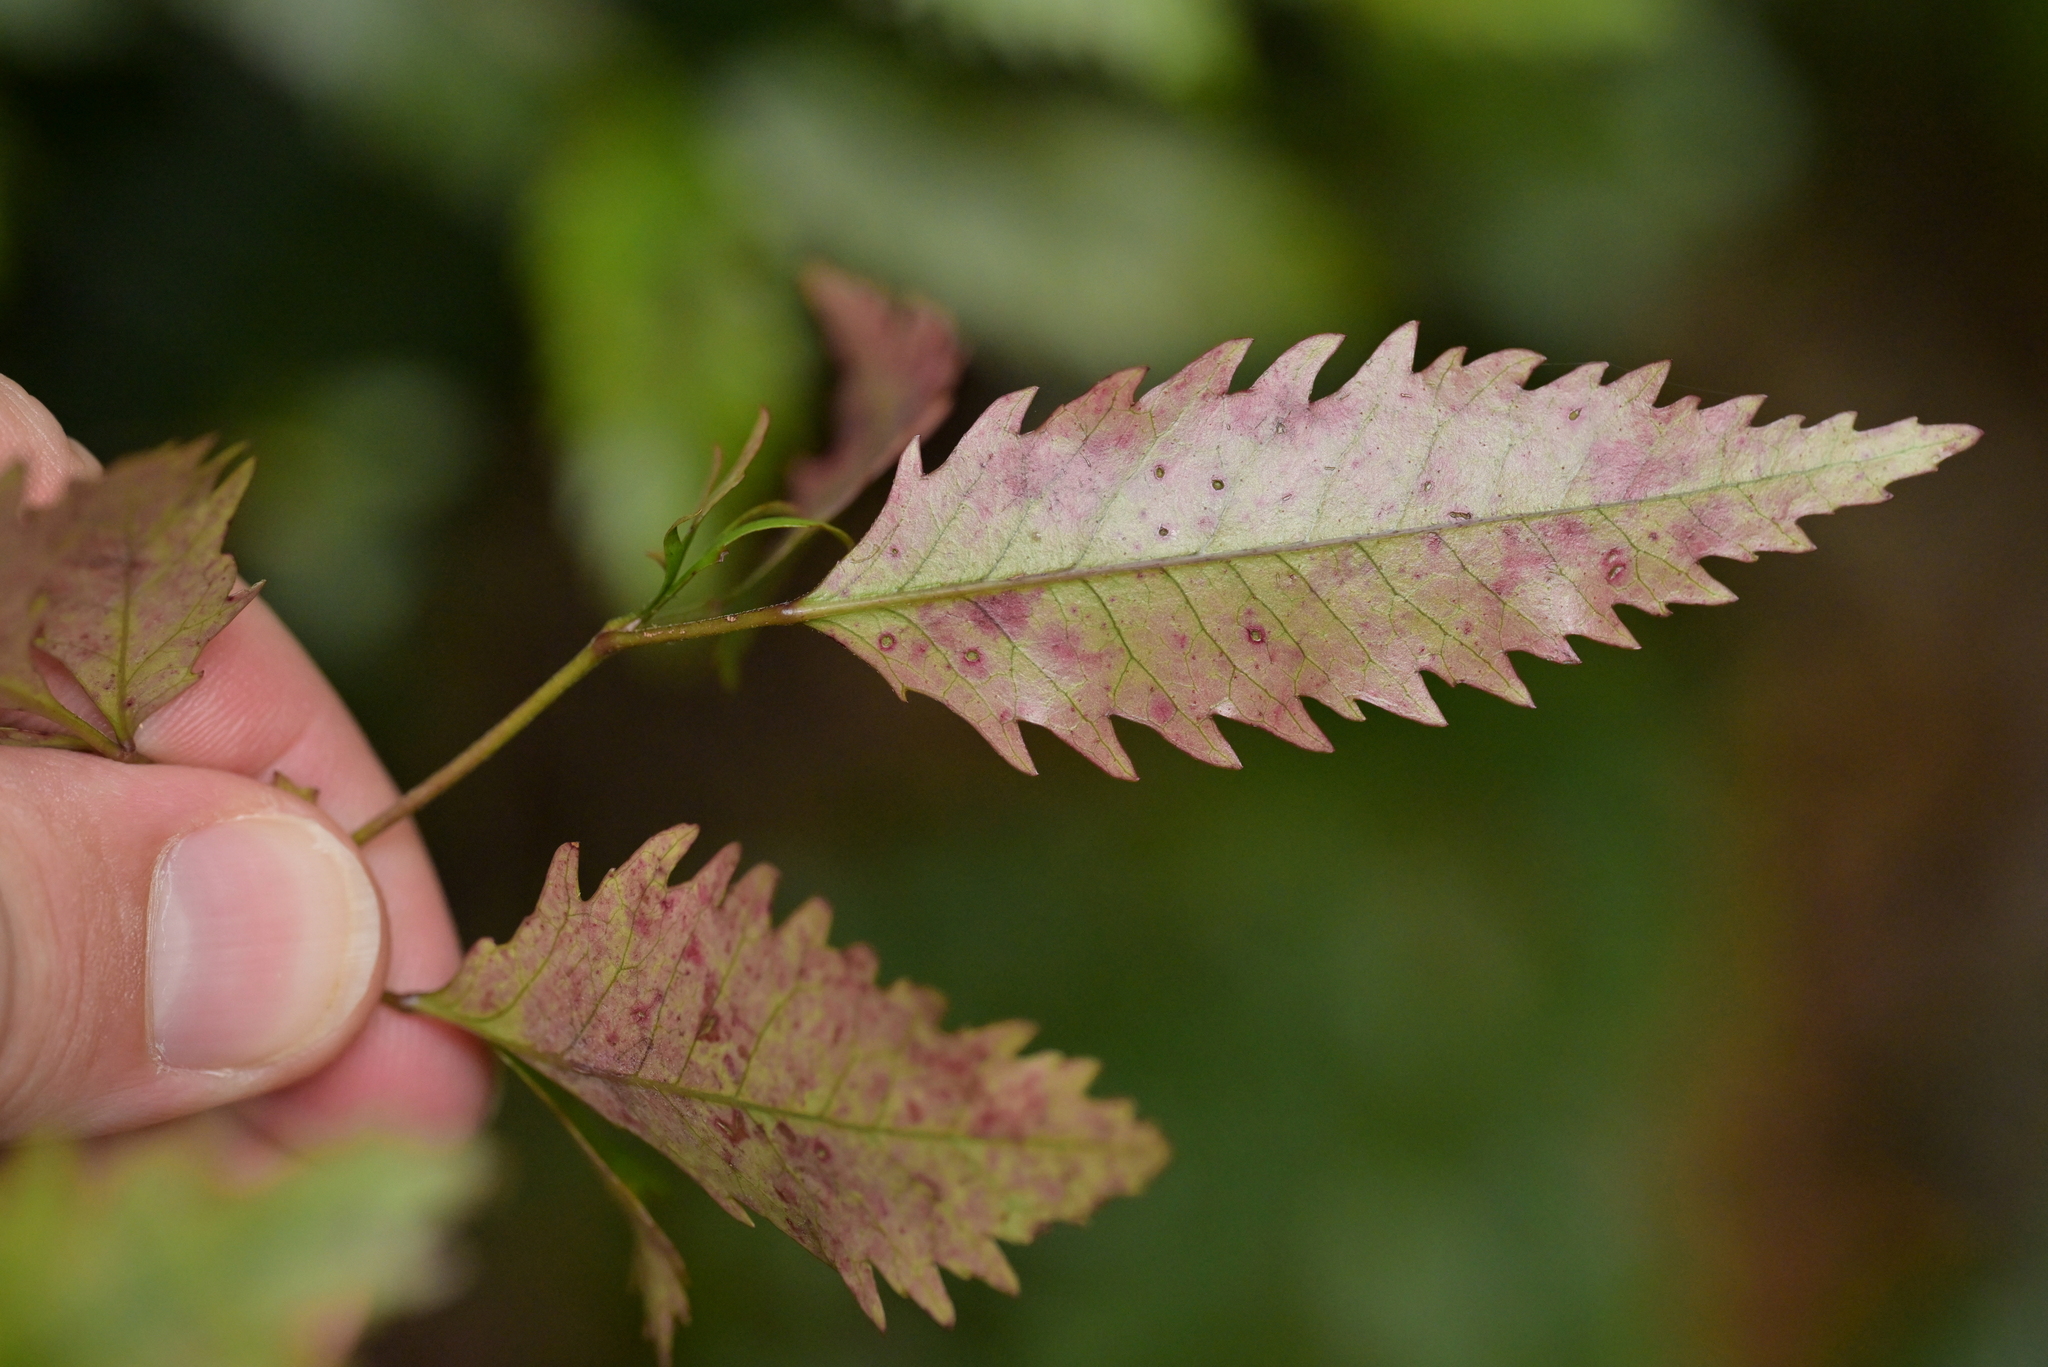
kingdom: Plantae
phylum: Tracheophyta
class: Magnoliopsida
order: Oxalidales
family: Cunoniaceae
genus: Pterophylla
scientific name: Pterophylla racemosa
